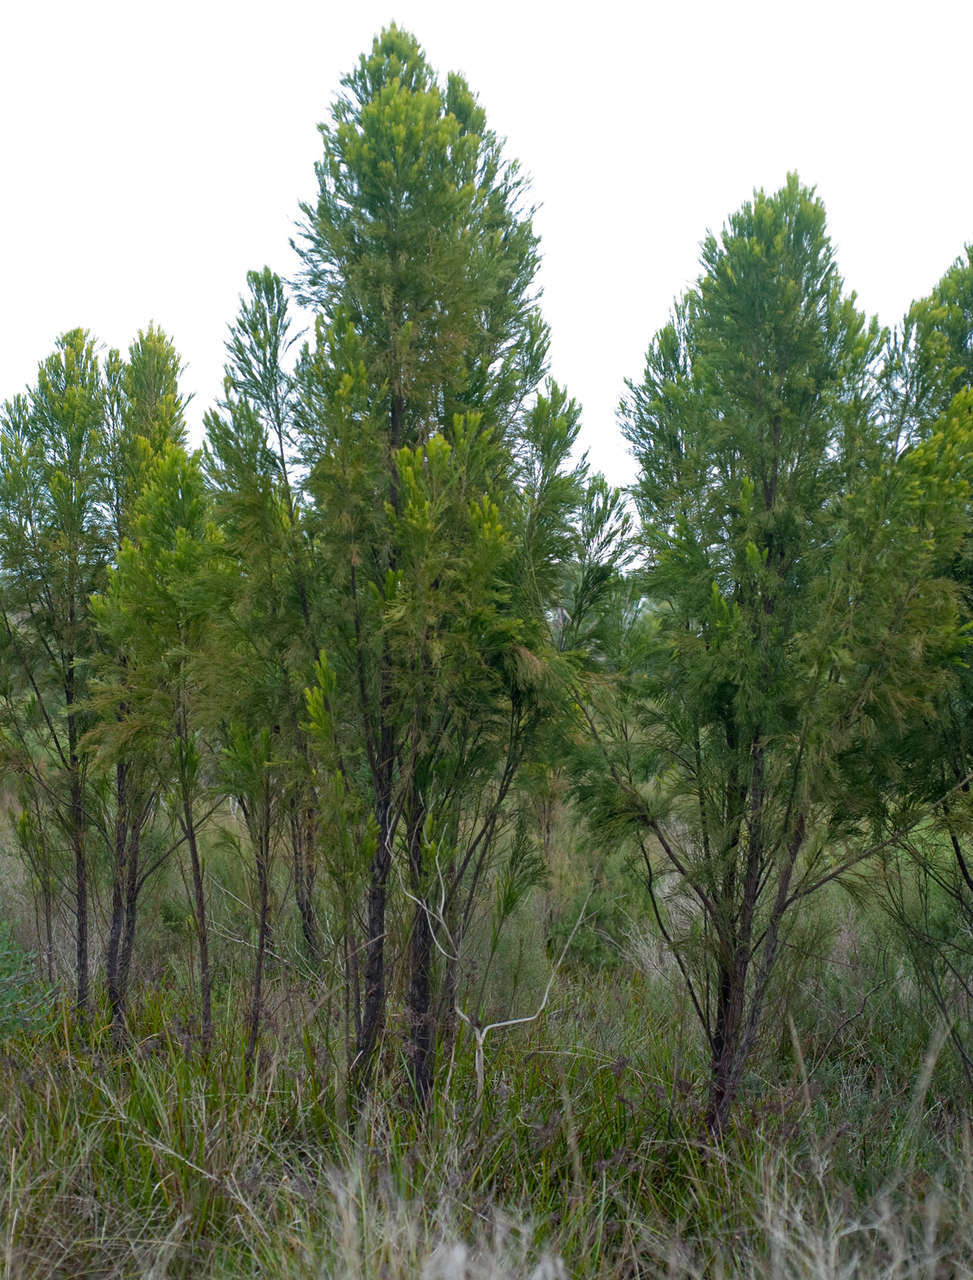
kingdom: Plantae
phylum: Tracheophyta
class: Magnoliopsida
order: Santalales
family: Santalaceae
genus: Exocarpos
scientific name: Exocarpos cupressiformis
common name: Cherry ballart
